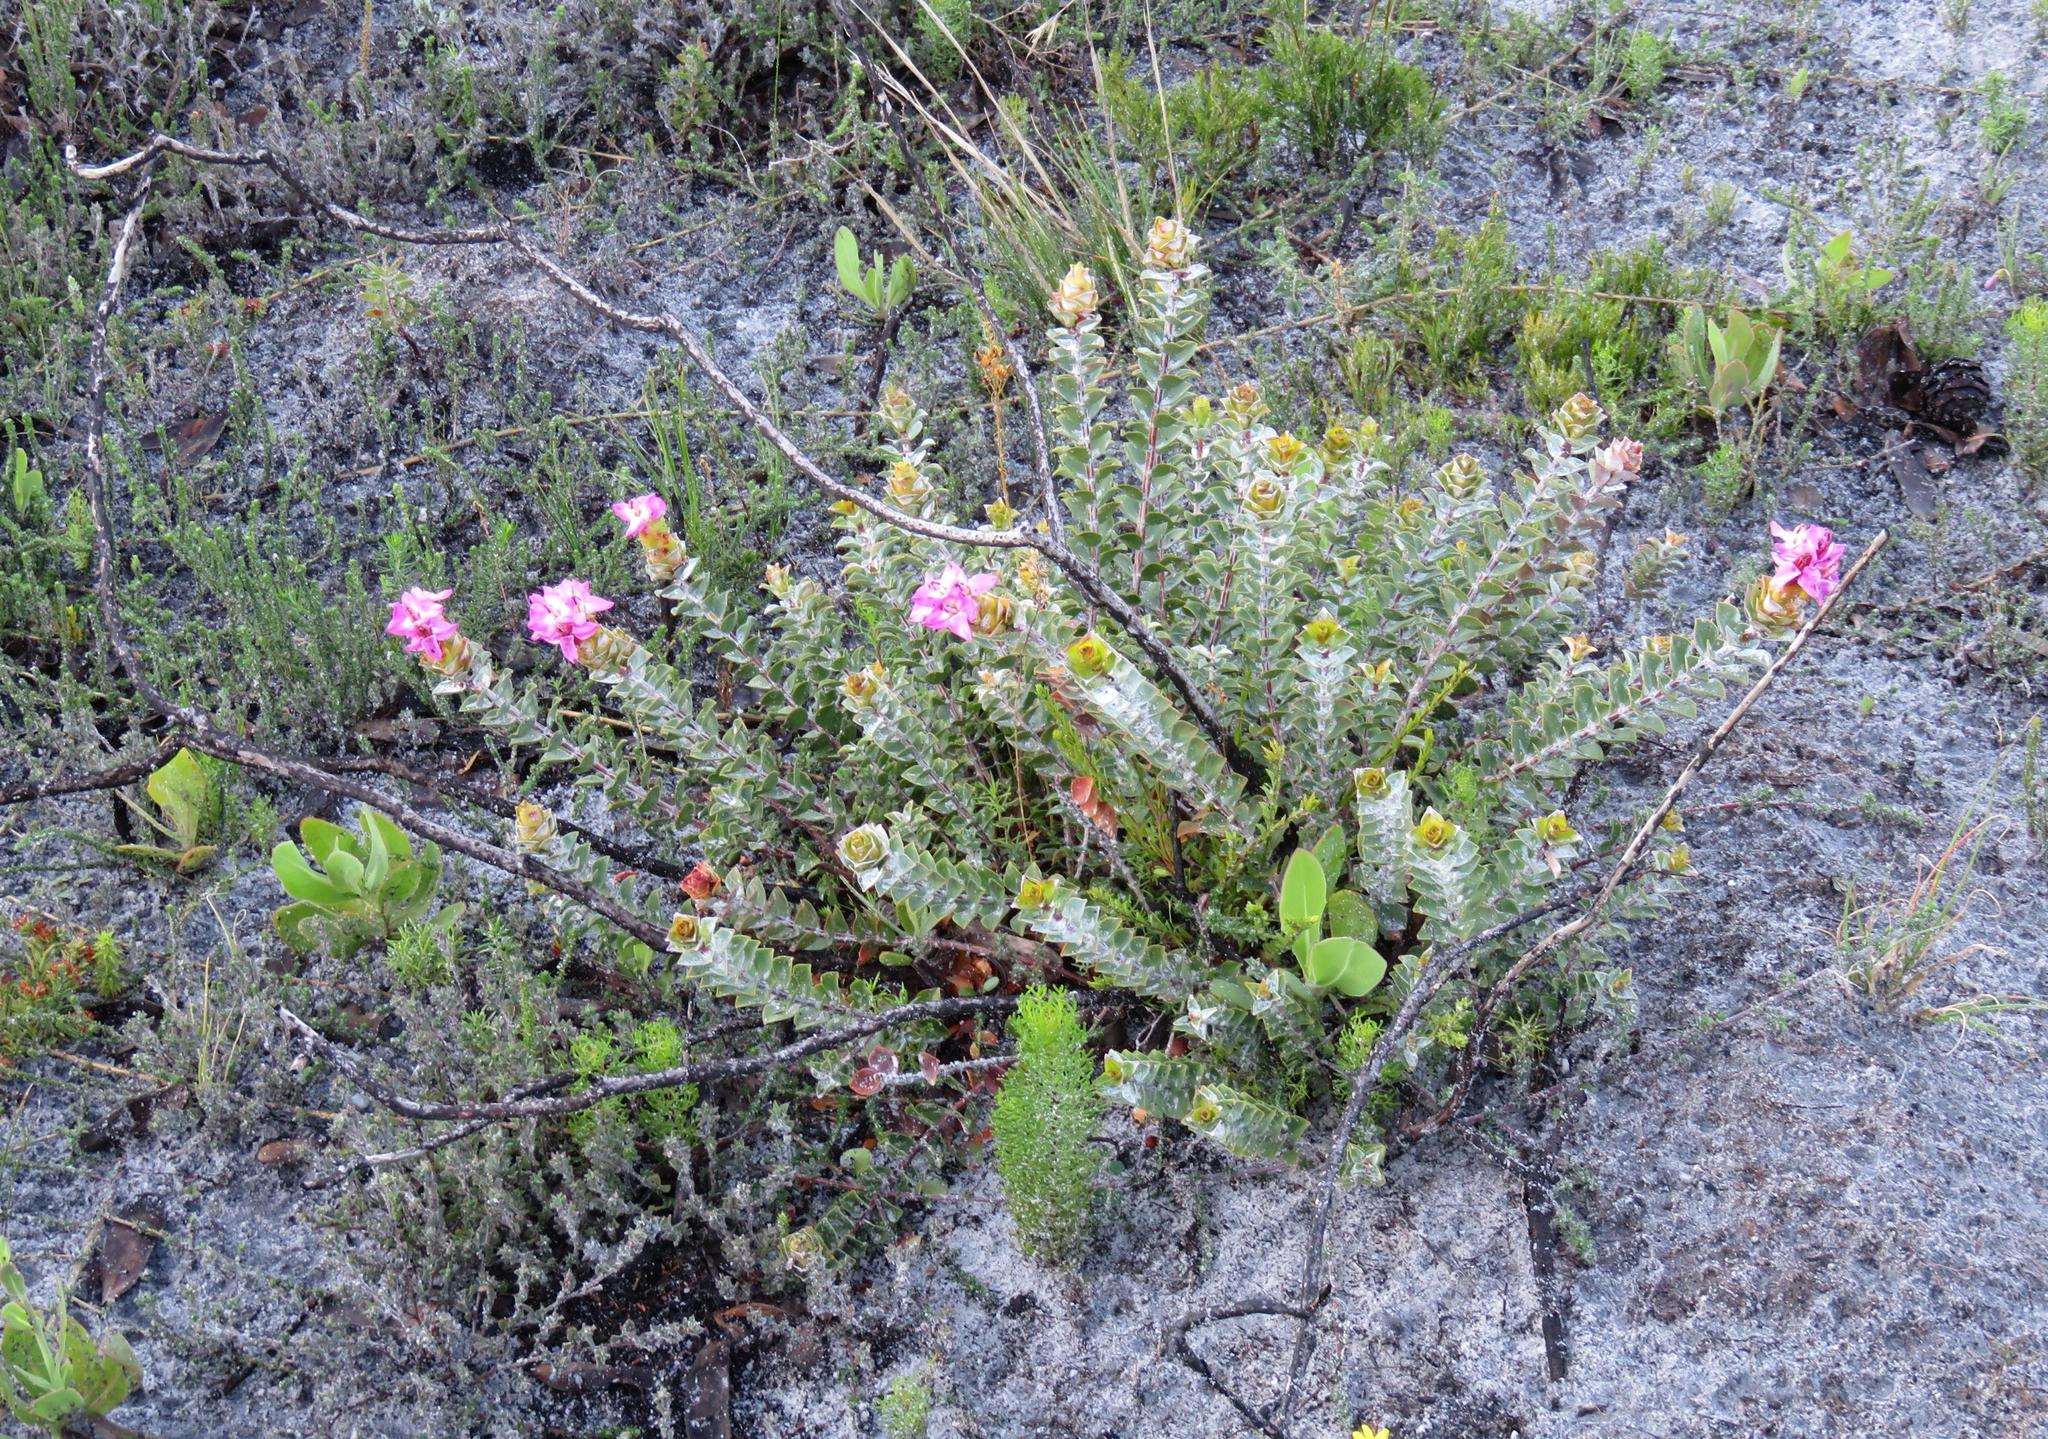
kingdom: Plantae
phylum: Tracheophyta
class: Magnoliopsida
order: Myrtales
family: Penaeaceae
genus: Saltera
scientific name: Saltera sarcocolla
